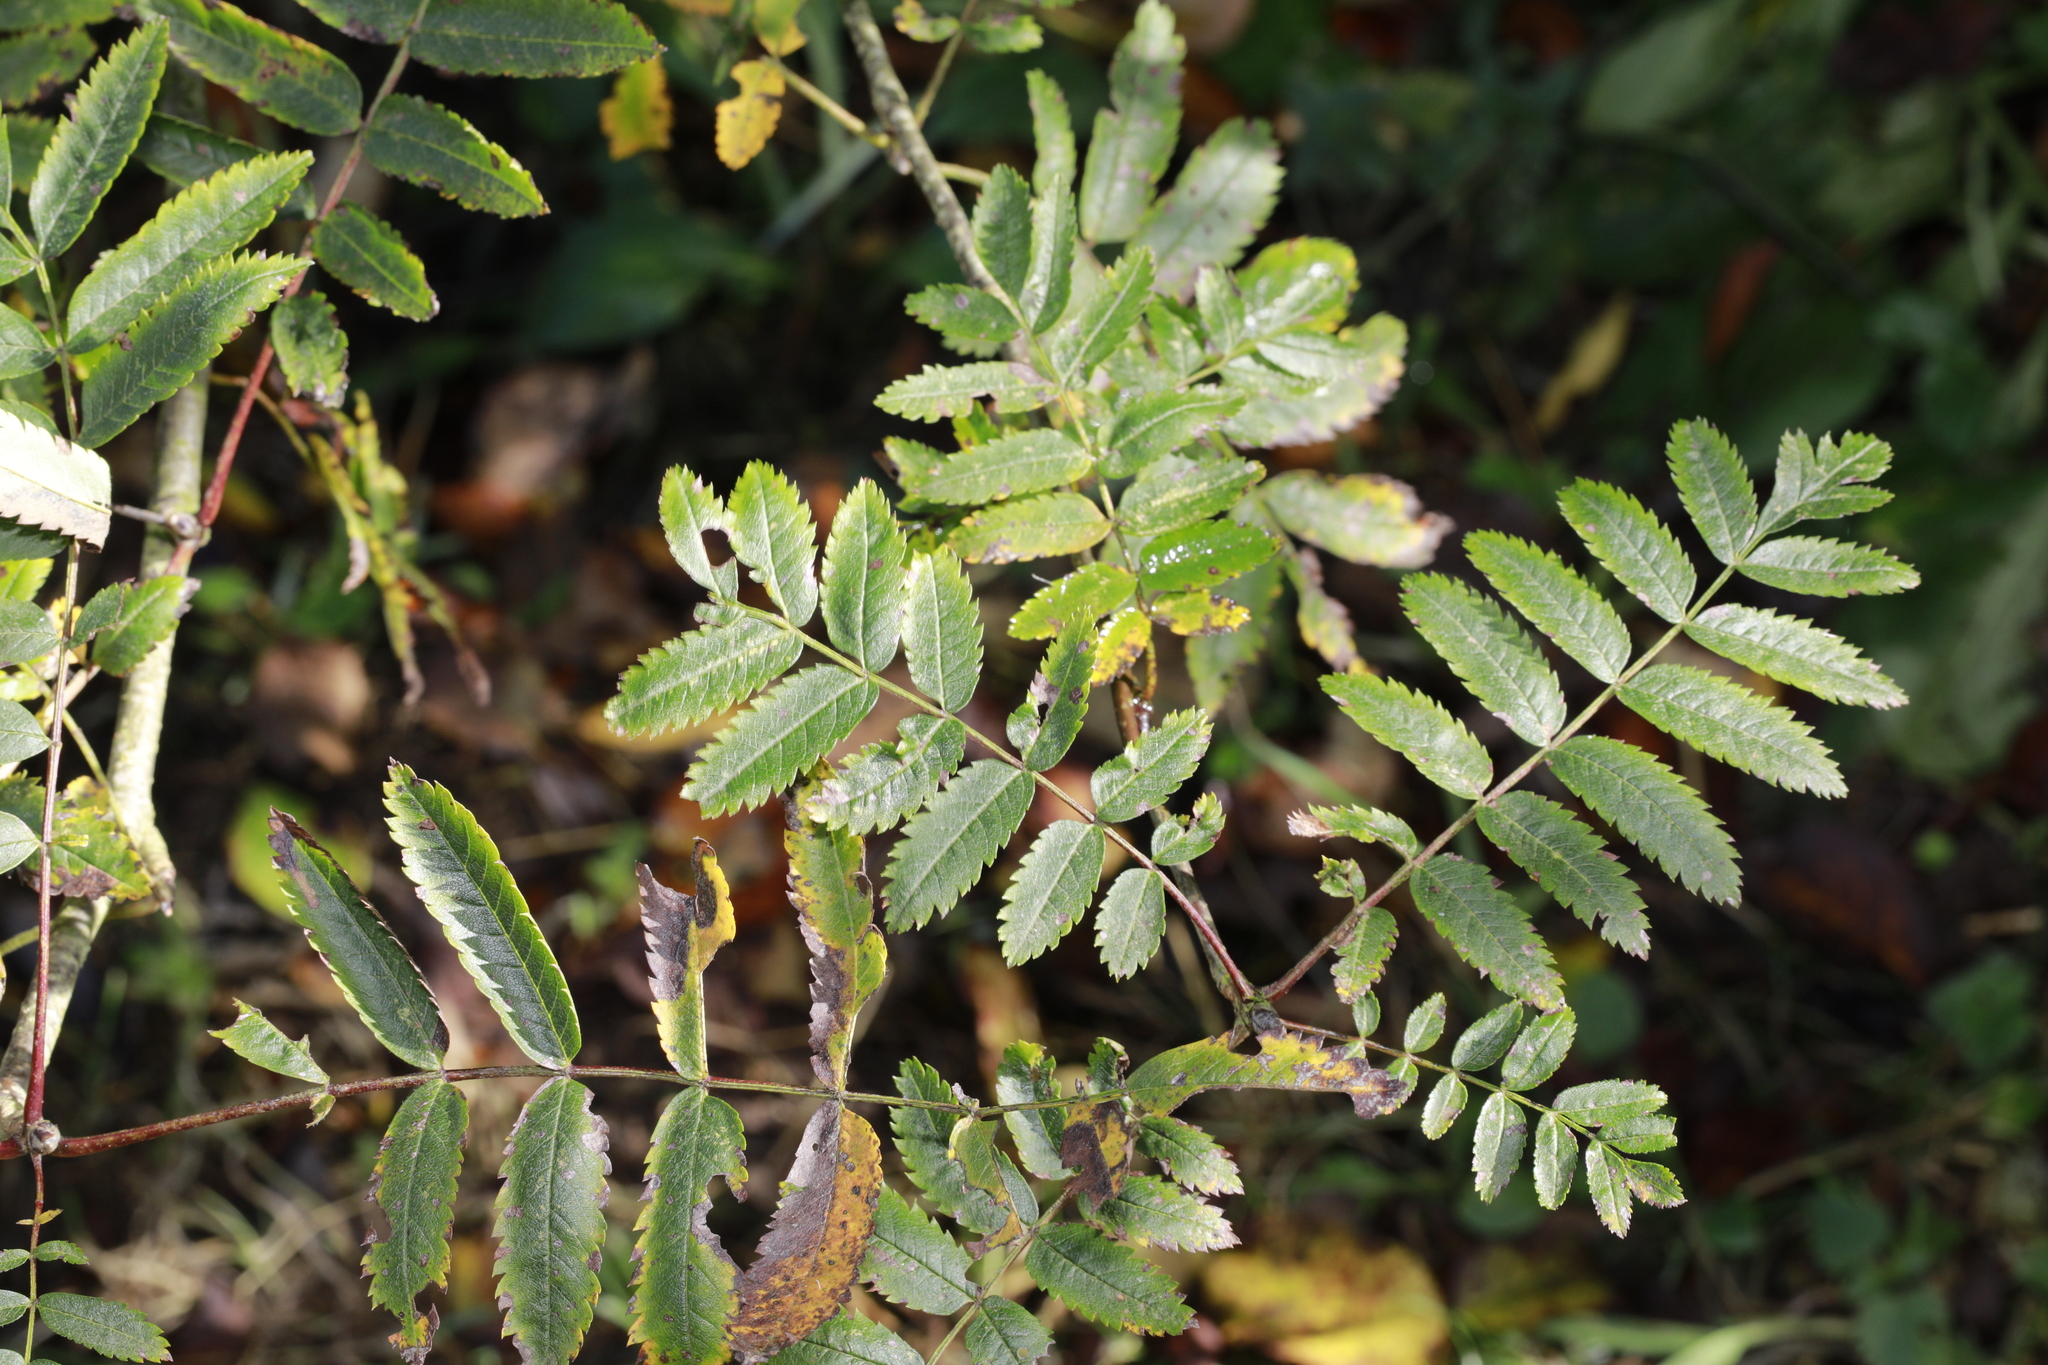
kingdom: Plantae
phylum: Tracheophyta
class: Magnoliopsida
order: Rosales
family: Rosaceae
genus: Sorbus
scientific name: Sorbus aucuparia
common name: Rowan
